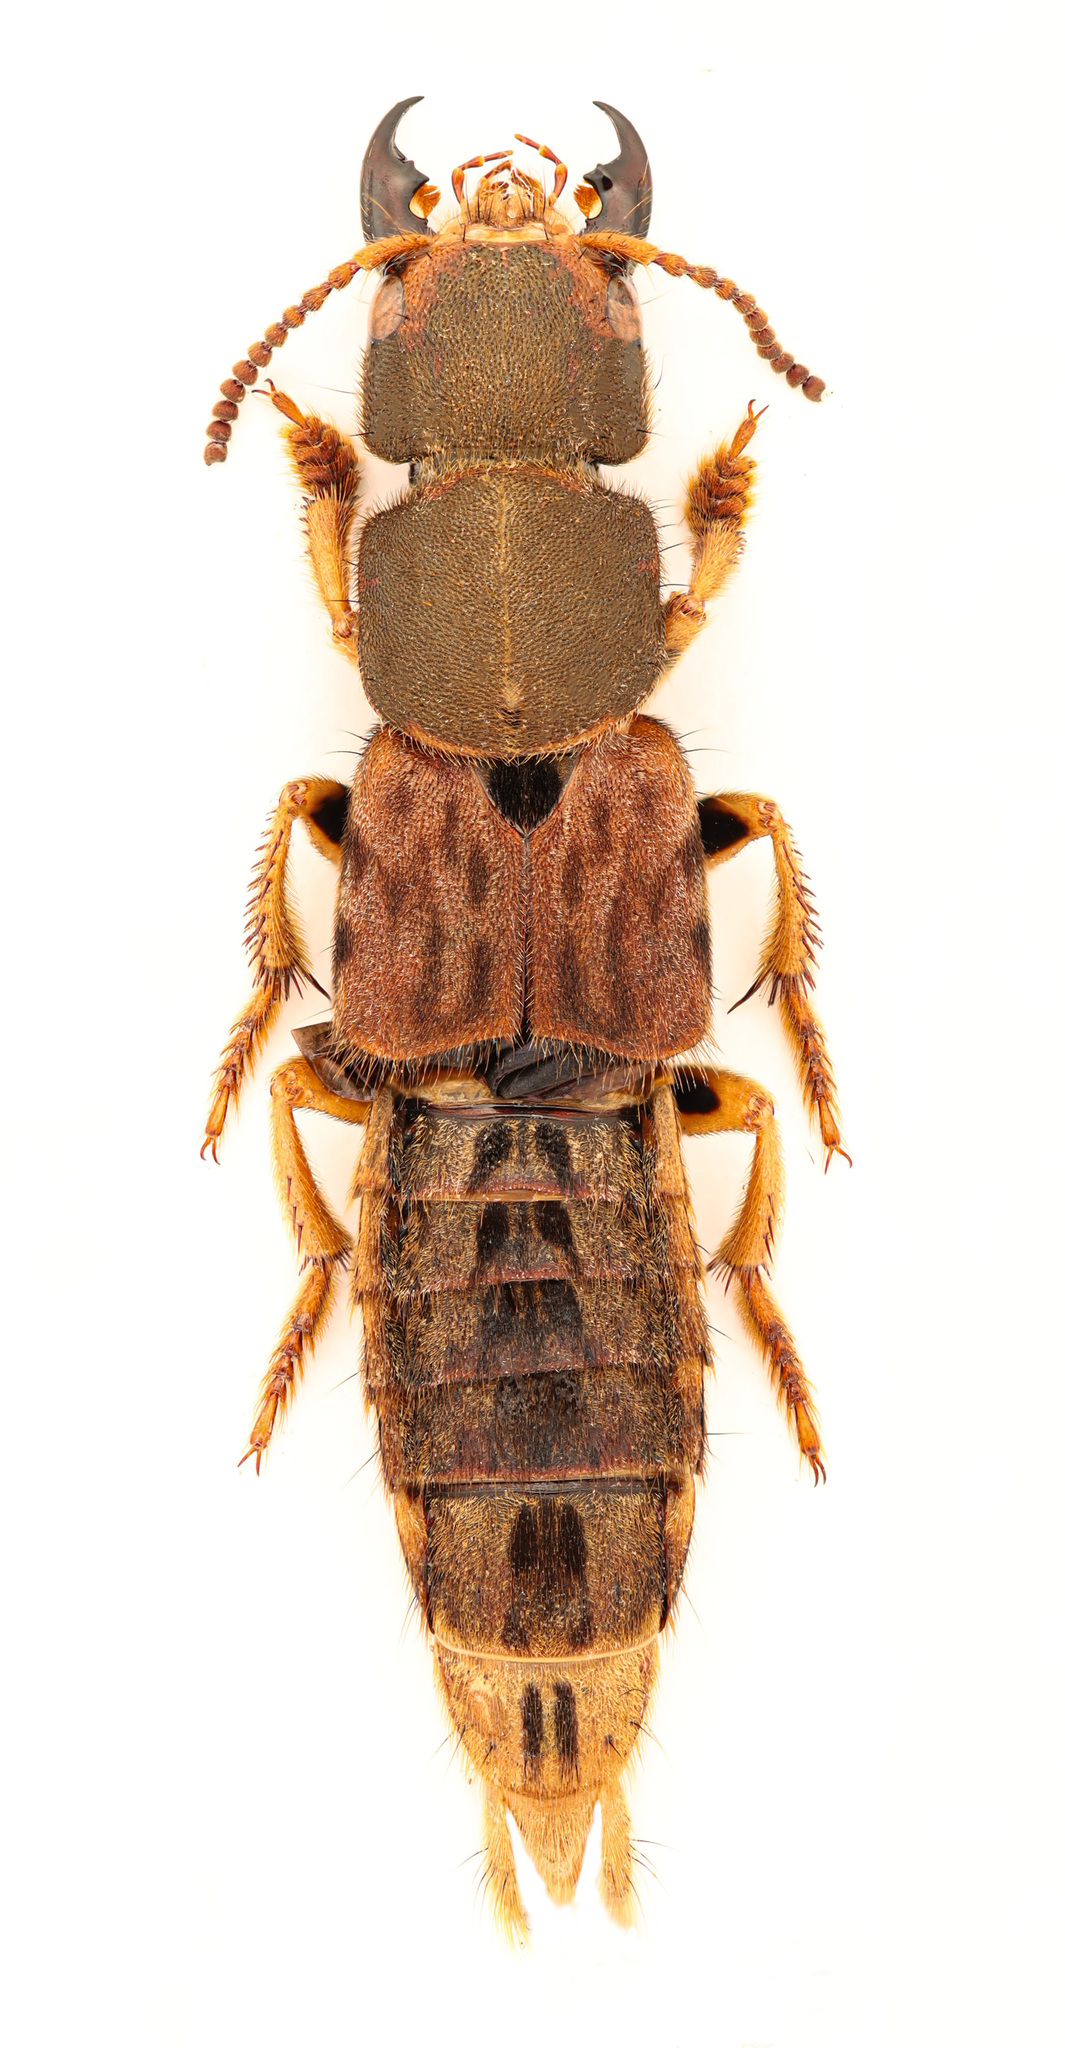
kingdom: Animalia
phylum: Arthropoda
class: Insecta
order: Coleoptera
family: Staphylinidae
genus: Platydracus
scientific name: Platydracus maculosus
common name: Brown rove beetle
